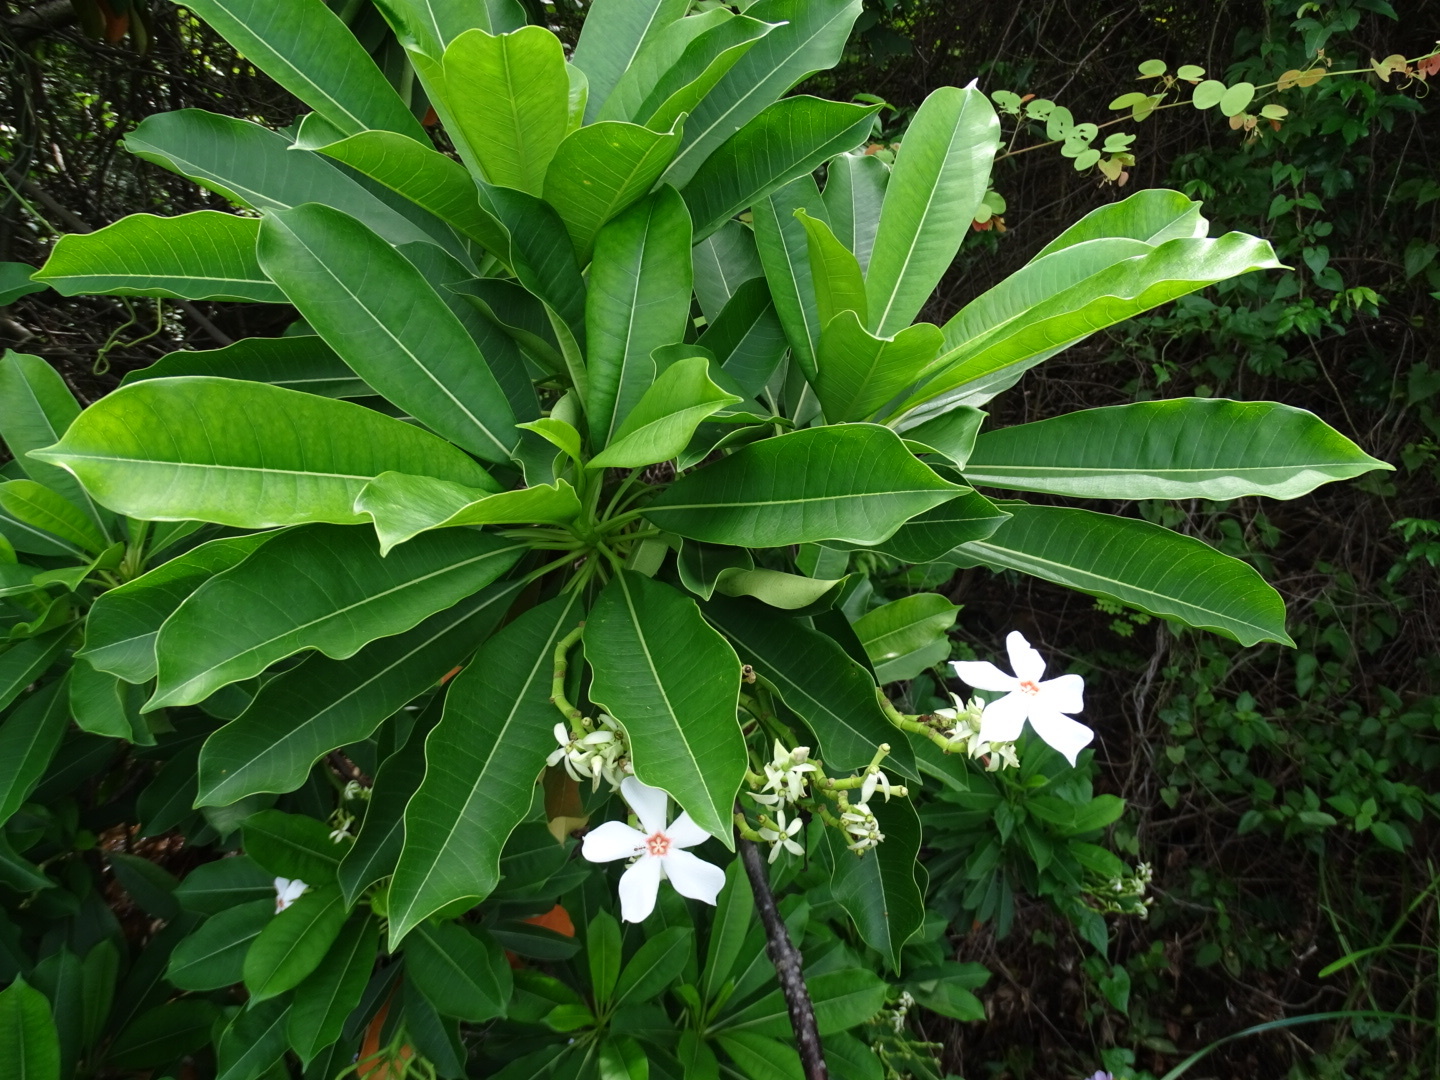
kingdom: Plantae
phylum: Tracheophyta
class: Magnoliopsida
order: Gentianales
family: Apocynaceae
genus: Cerbera
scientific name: Cerbera manghas
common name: Reva
